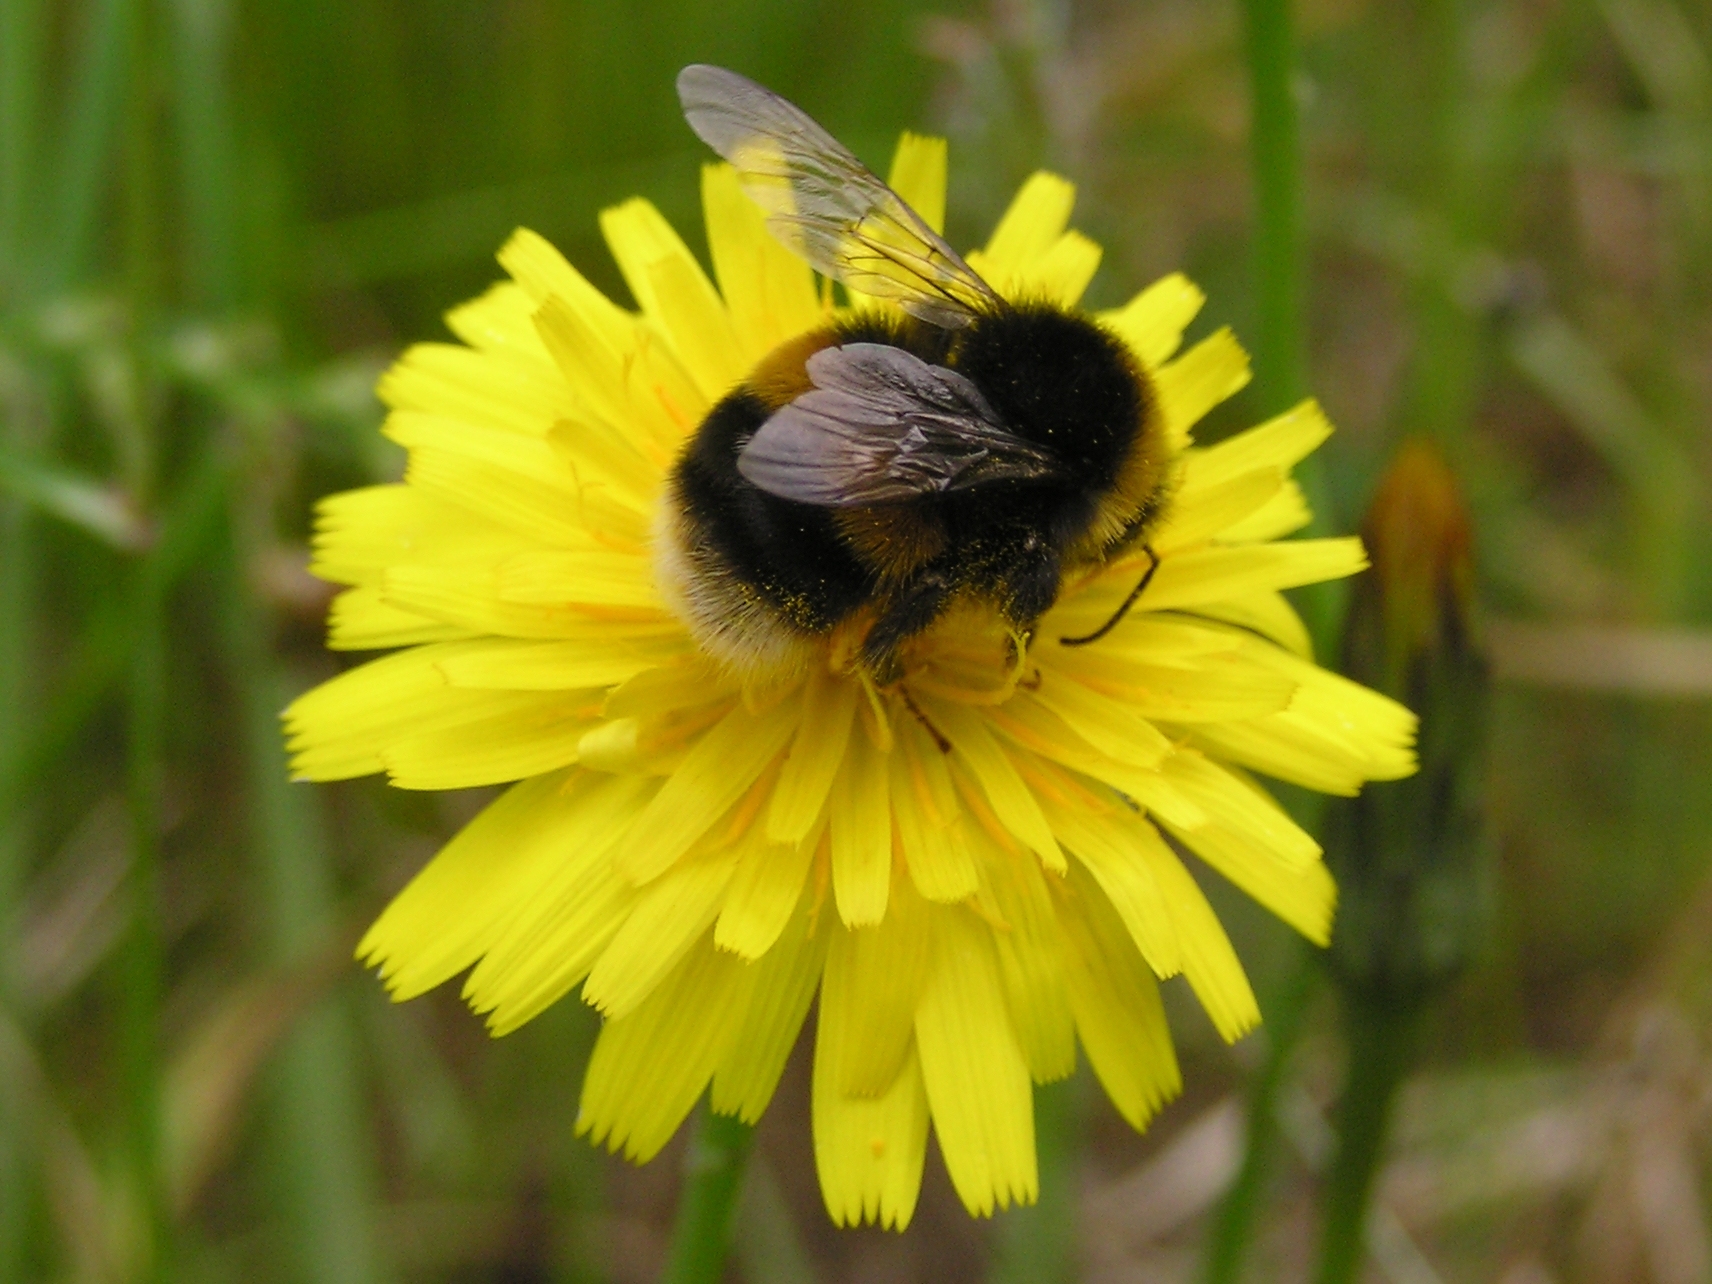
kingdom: Animalia
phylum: Arthropoda
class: Insecta
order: Hymenoptera
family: Apidae
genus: Bombus
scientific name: Bombus terrestris
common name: Buff-tailed bumblebee
